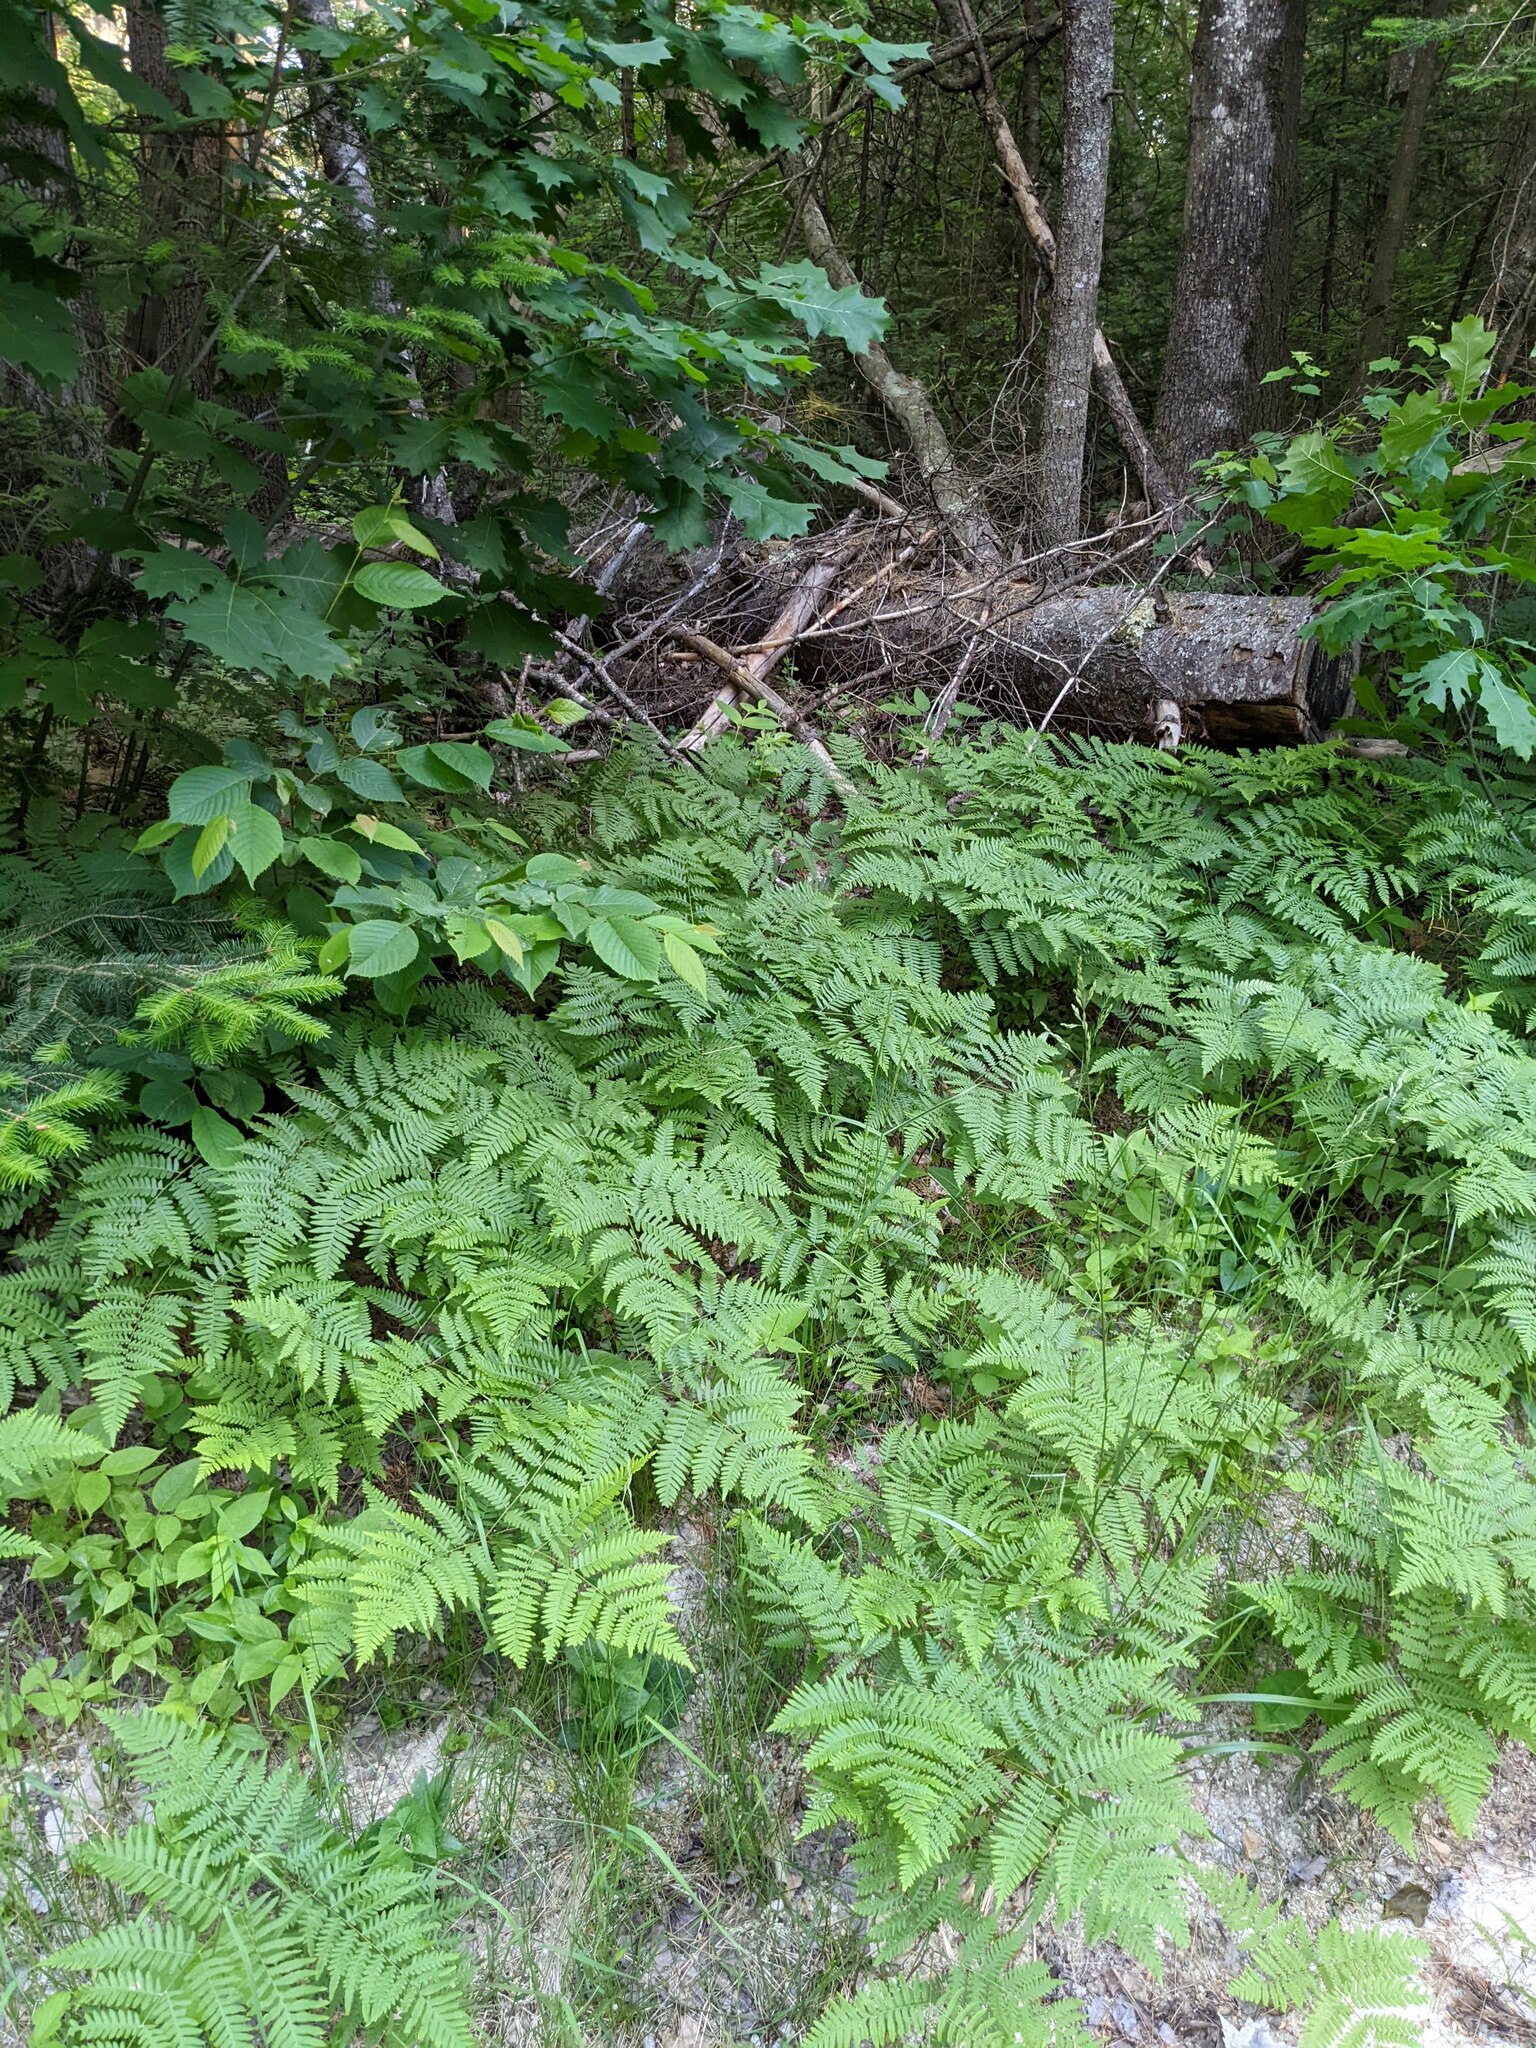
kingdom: Plantae
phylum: Tracheophyta
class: Polypodiopsida
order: Polypodiales
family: Dennstaedtiaceae
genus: Pteridium
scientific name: Pteridium aquilinum
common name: Bracken
